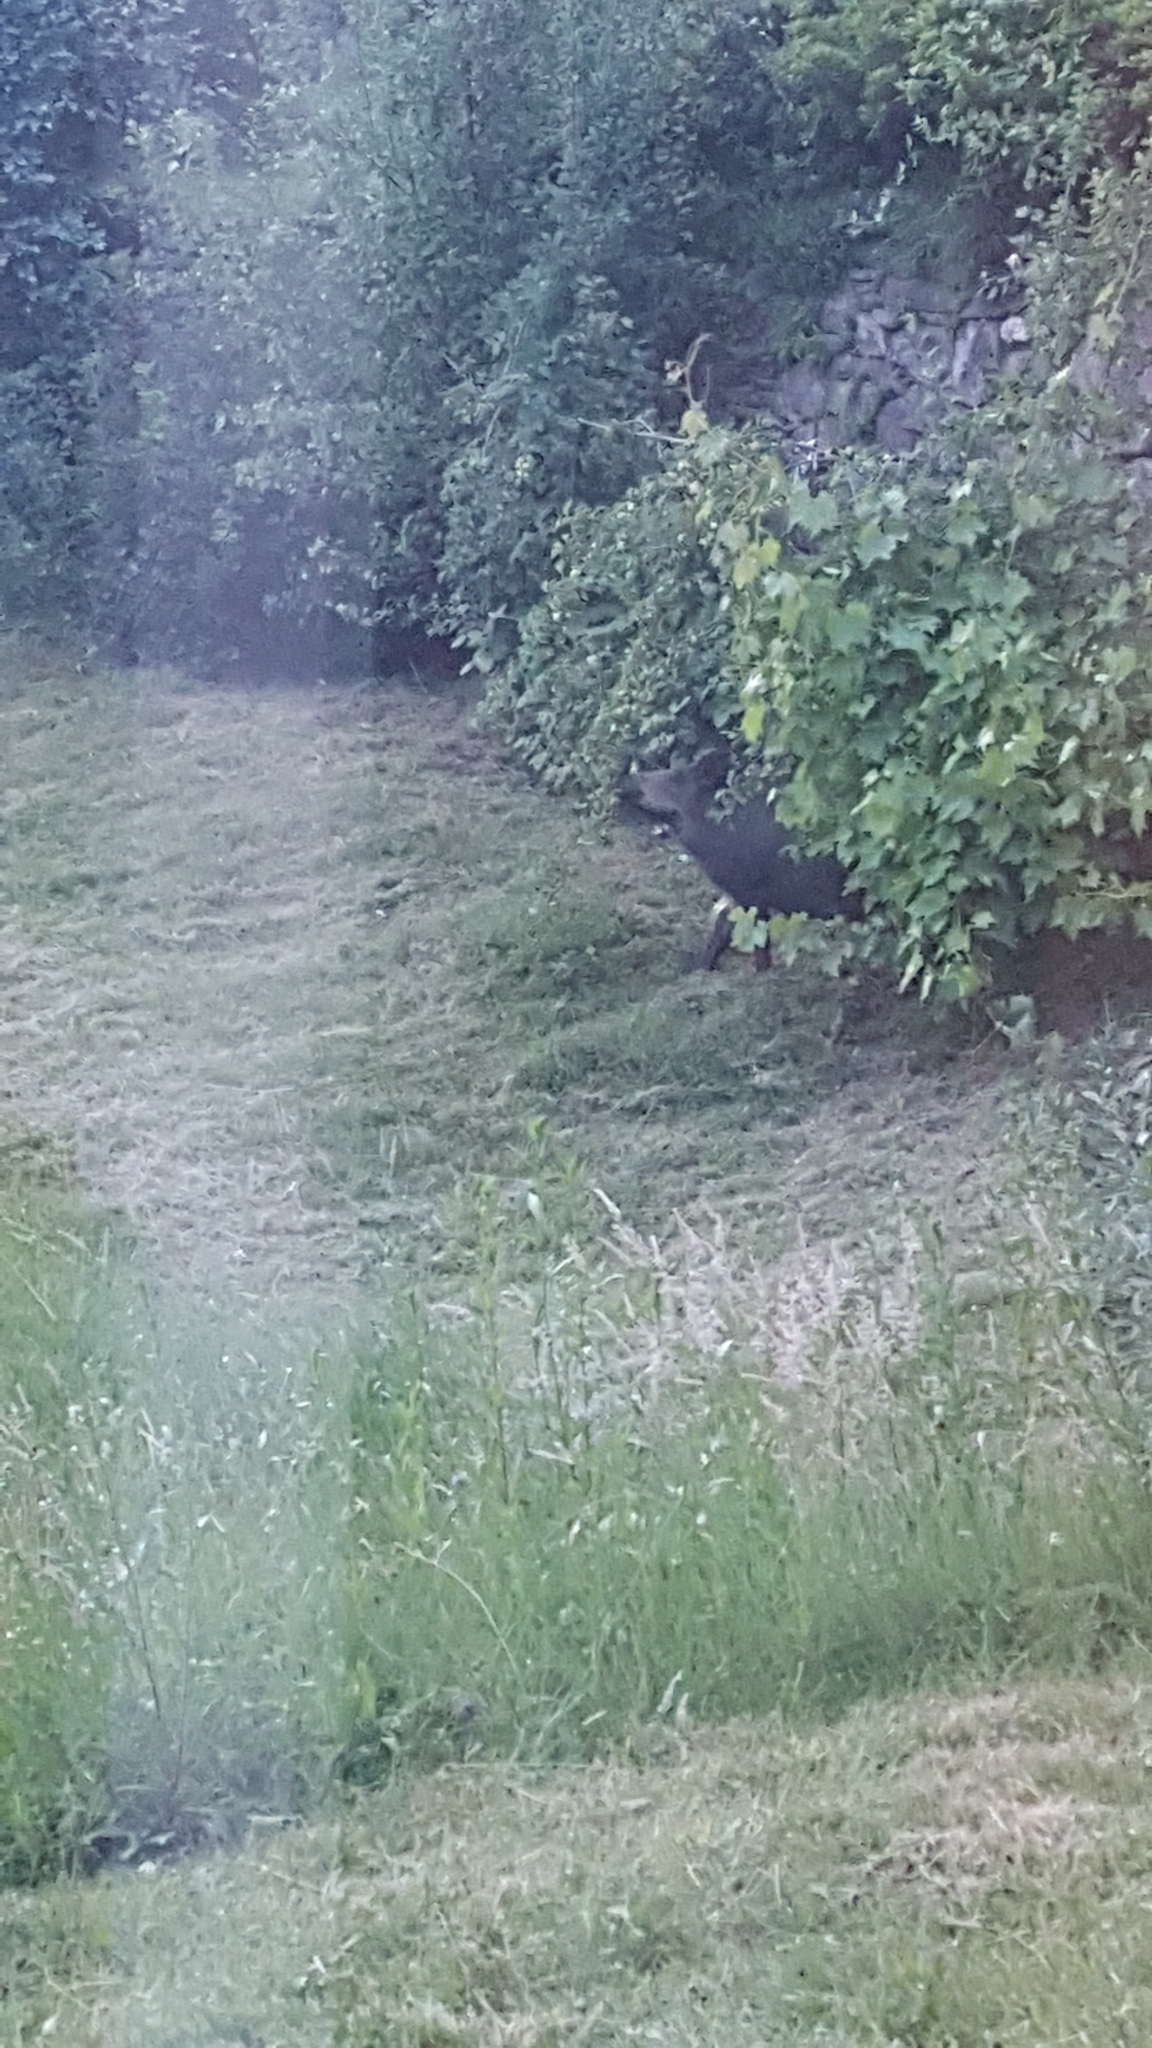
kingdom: Animalia
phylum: Chordata
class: Mammalia
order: Artiodactyla
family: Suidae
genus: Sus
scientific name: Sus scrofa
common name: Wild boar
